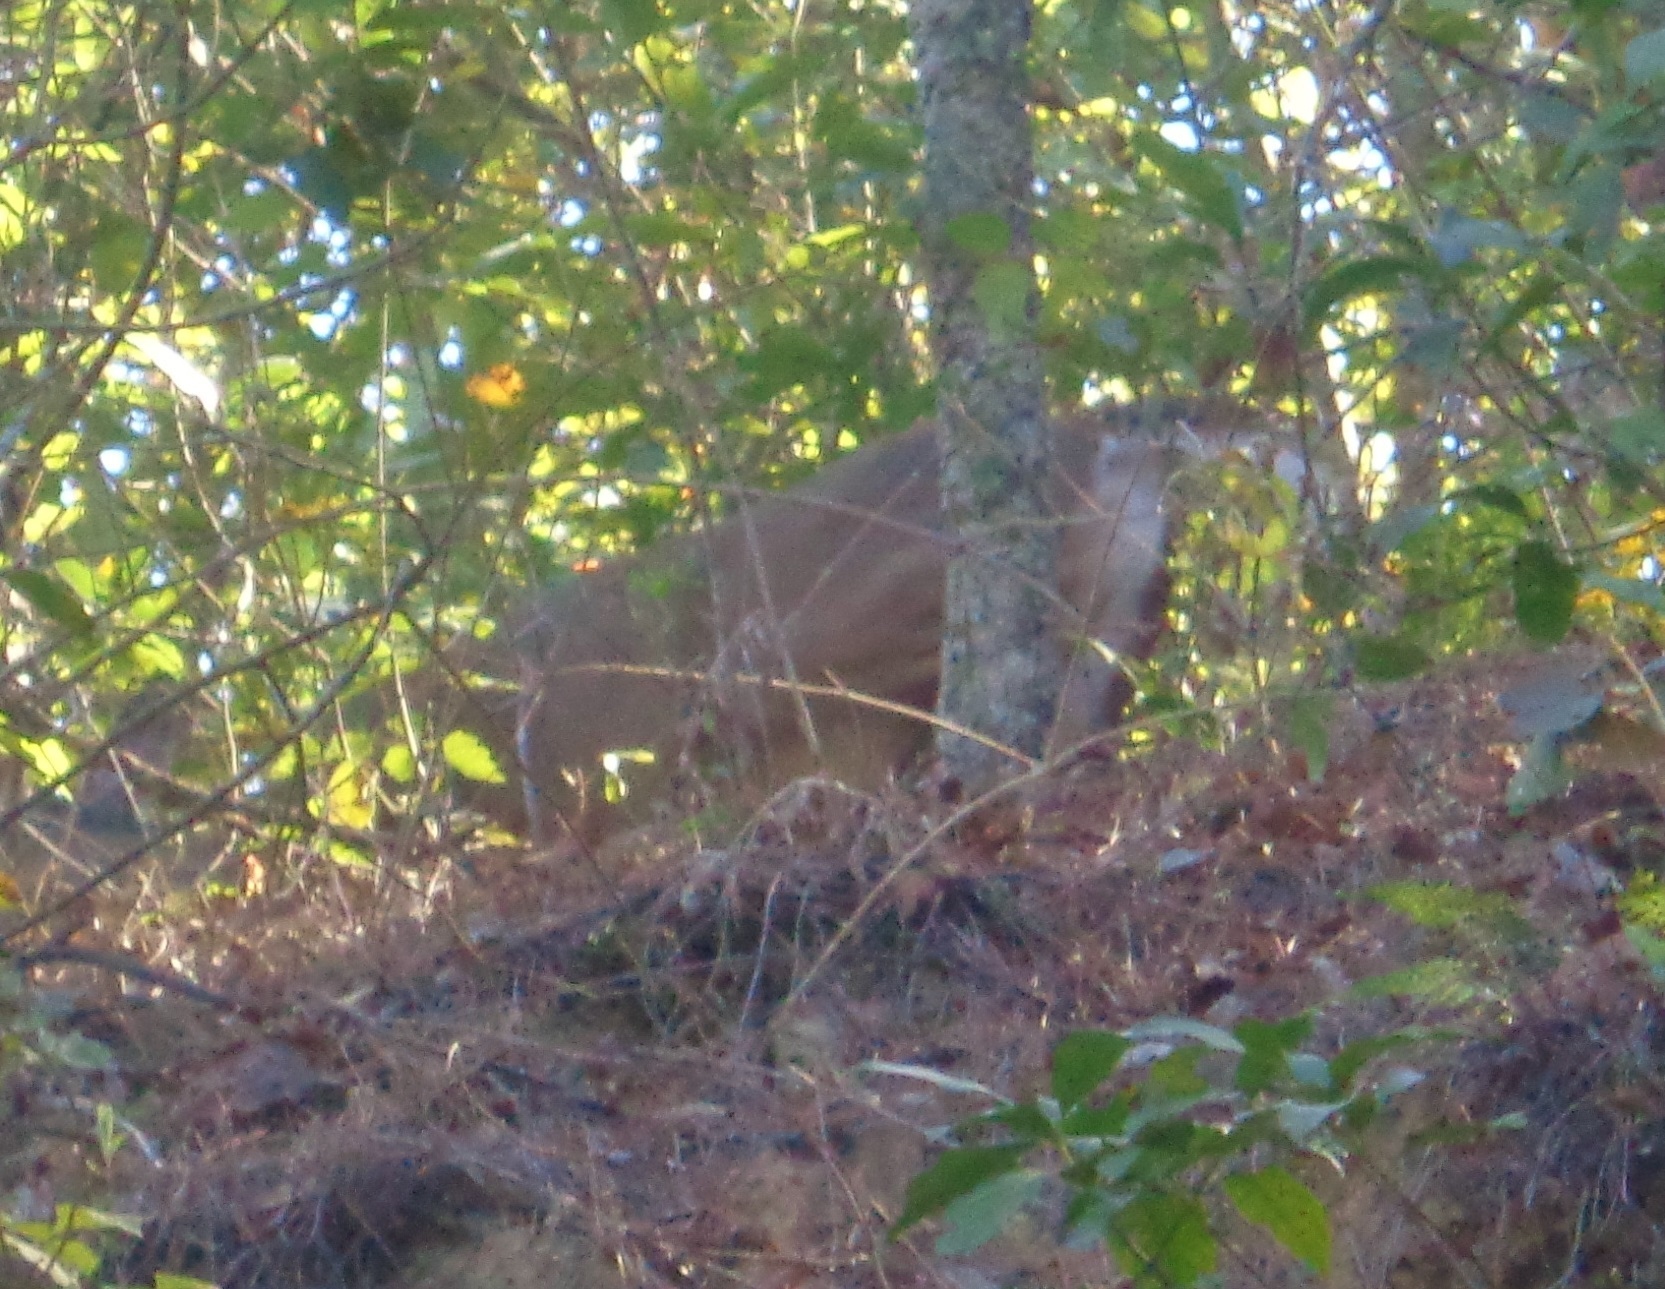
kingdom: Animalia
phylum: Chordata
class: Mammalia
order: Artiodactyla
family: Cervidae
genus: Odocoileus
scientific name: Odocoileus virginianus
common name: White-tailed deer
